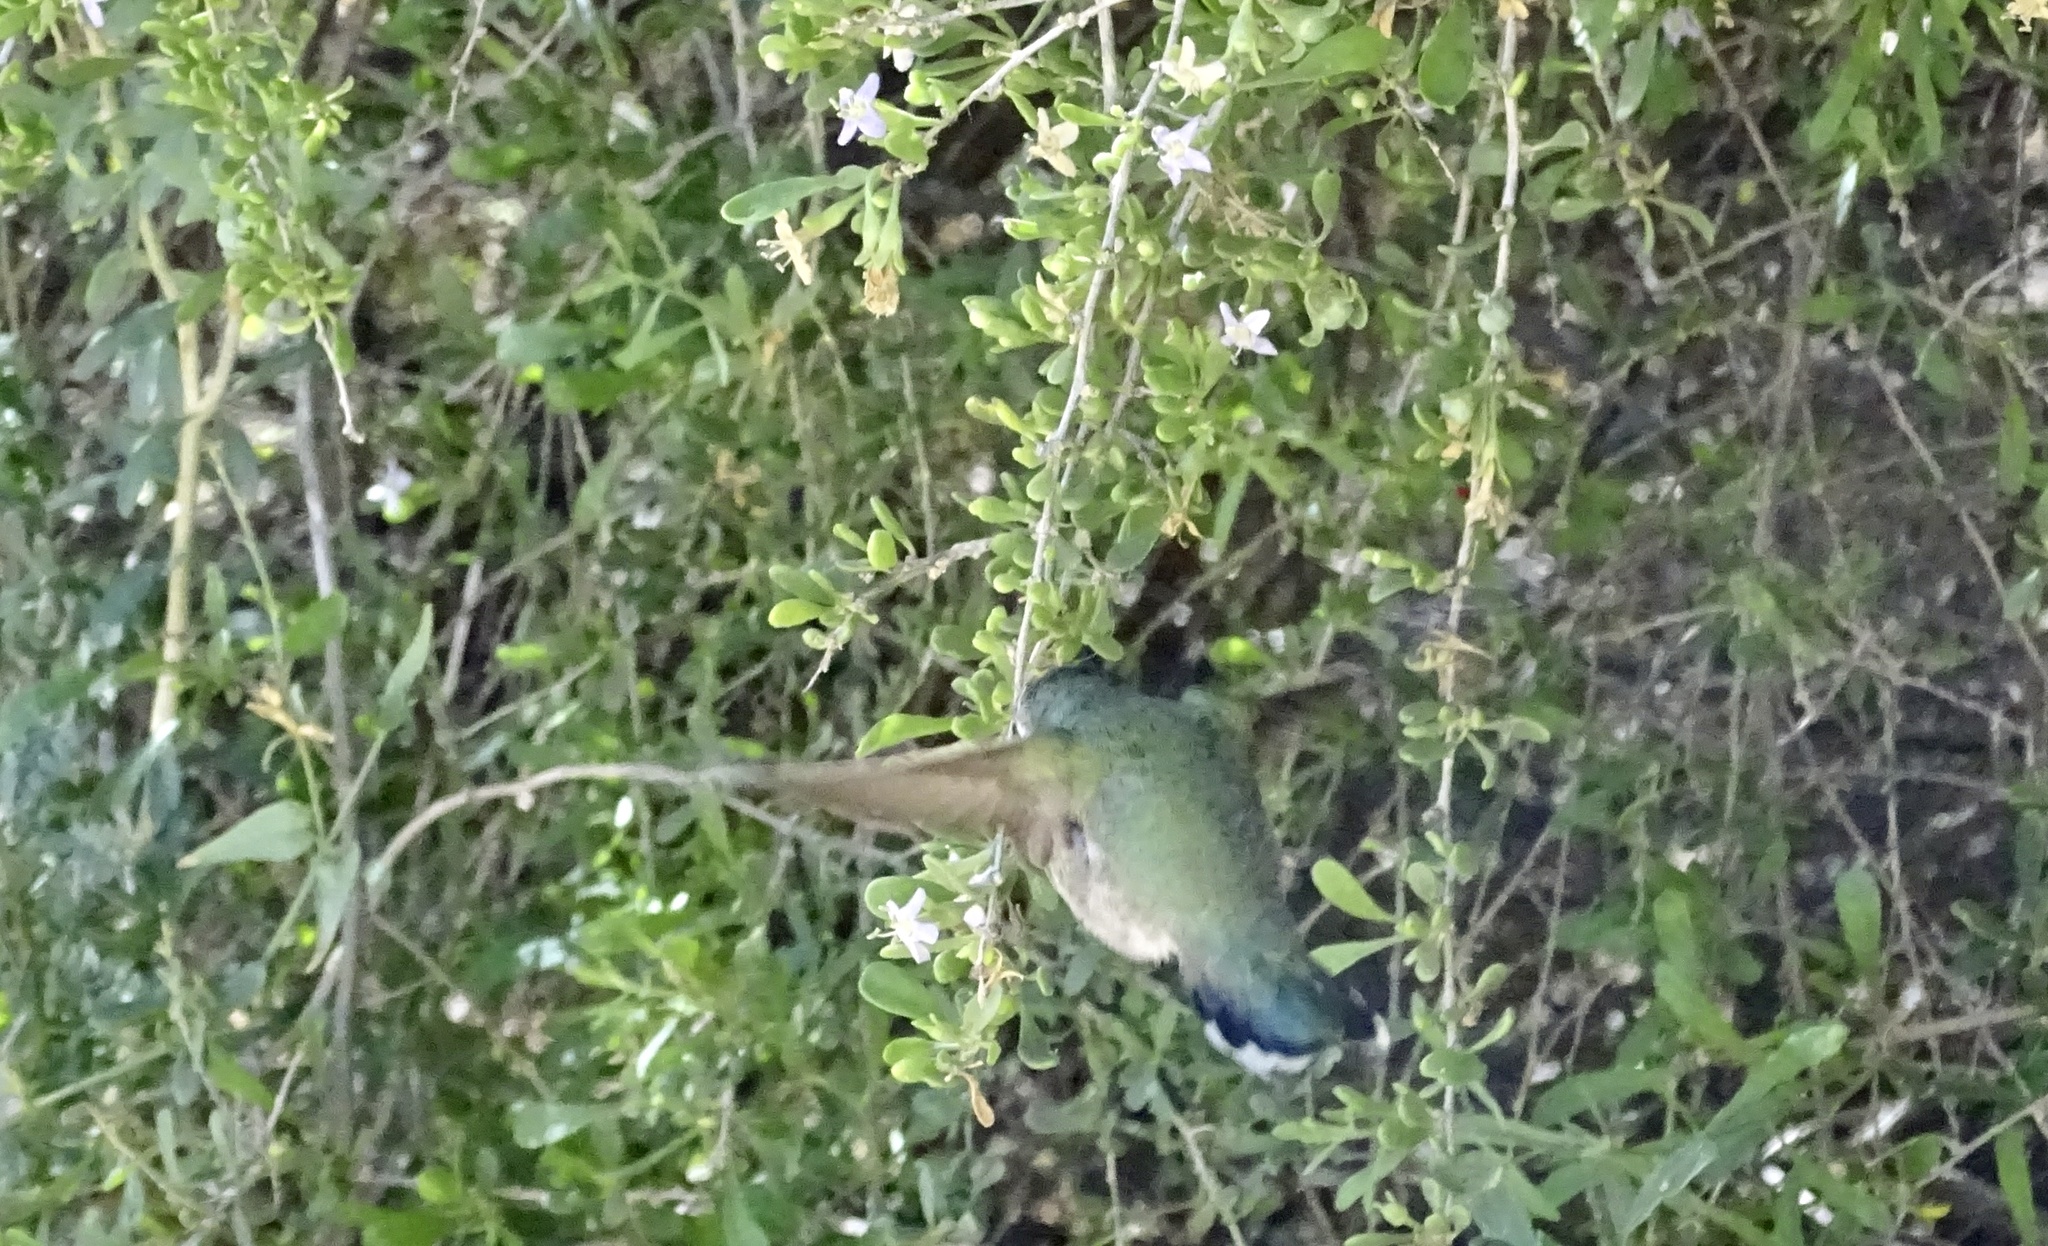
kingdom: Animalia
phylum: Chordata
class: Aves
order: Apodiformes
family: Trochilidae
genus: Calypte
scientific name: Calypte costae
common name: Costa's hummingbird
